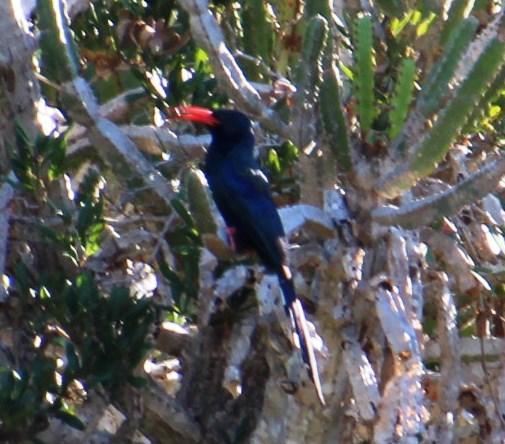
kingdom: Animalia
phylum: Chordata
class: Aves
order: Bucerotiformes
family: Phoeniculidae
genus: Phoeniculus
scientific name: Phoeniculus purpureus
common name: Green woodhoopoe
